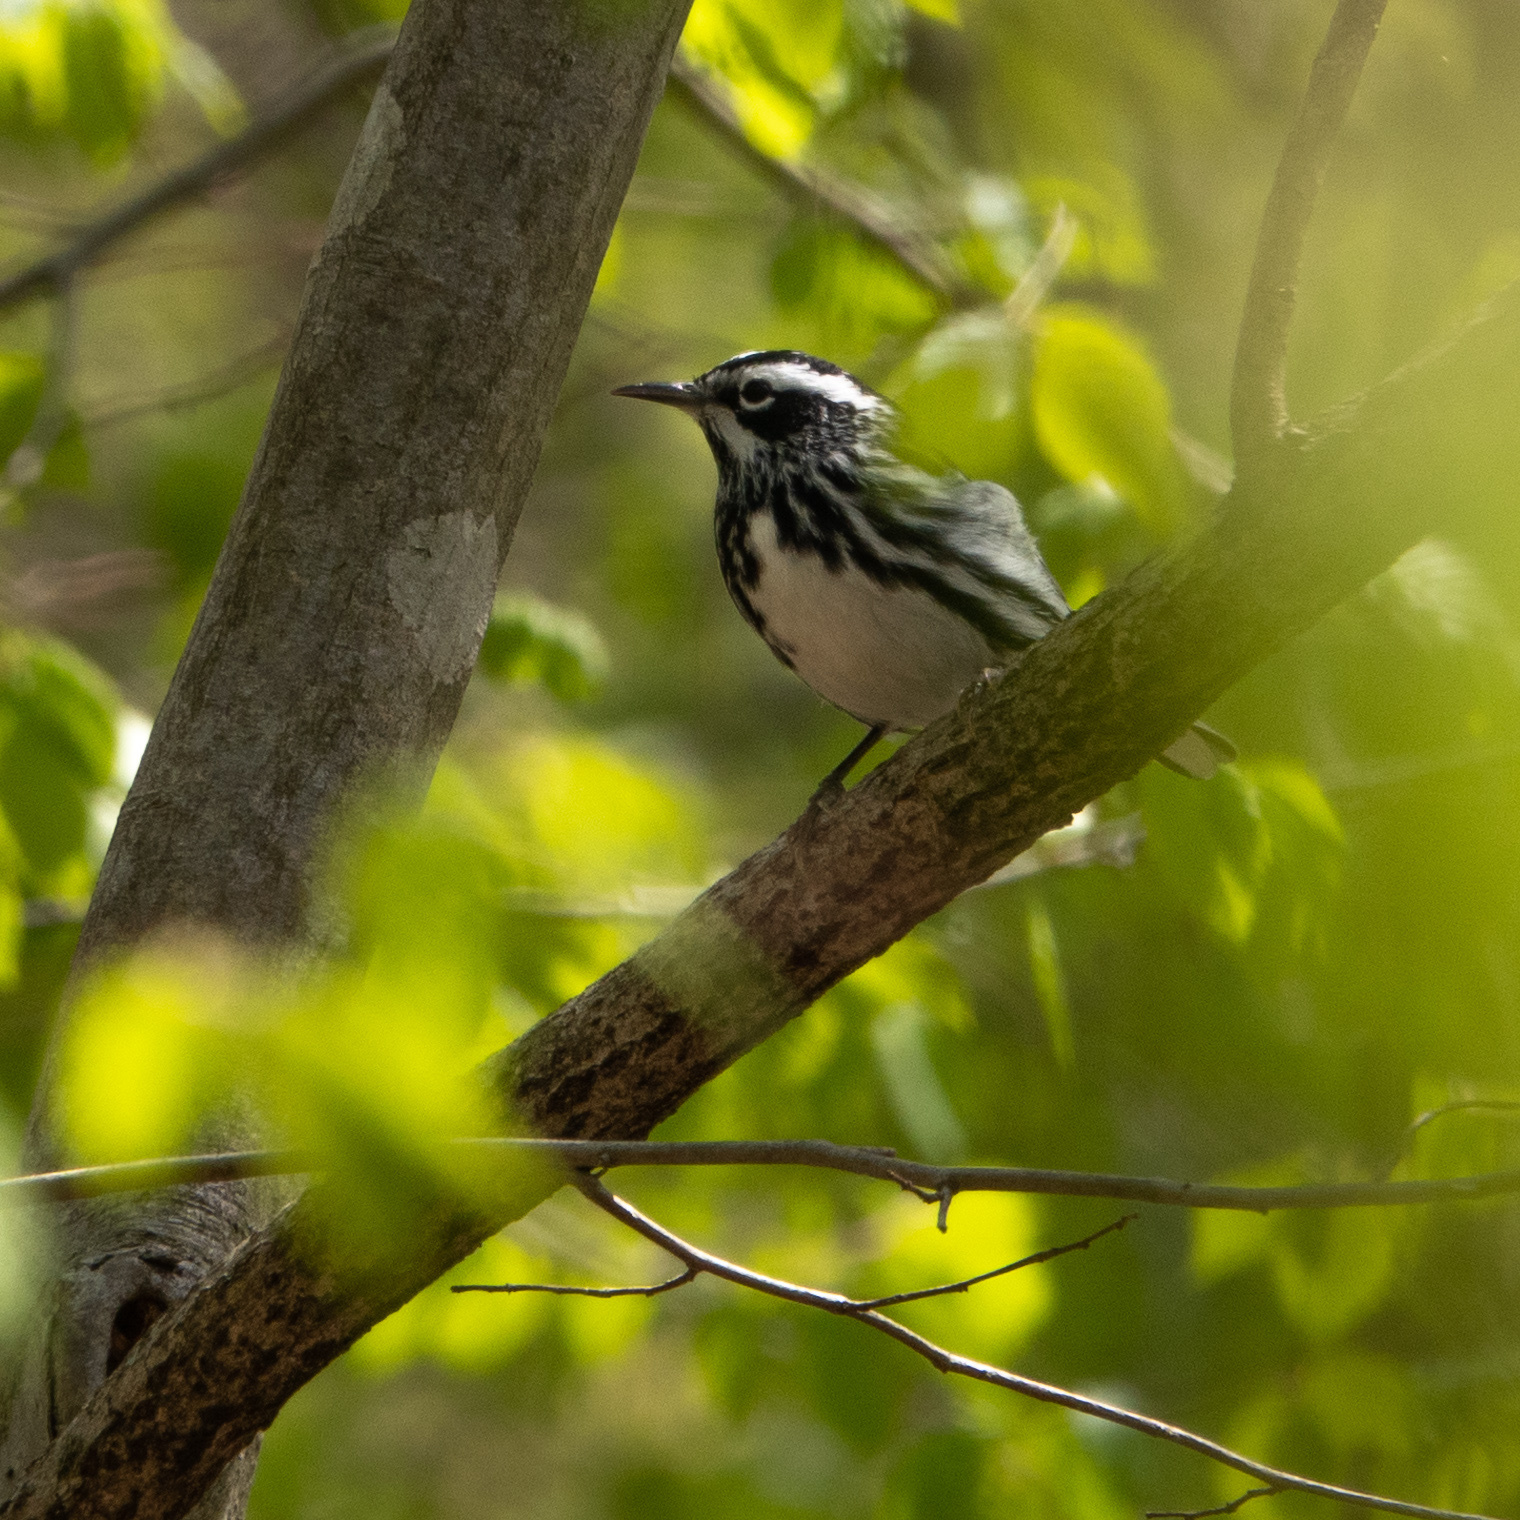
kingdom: Animalia
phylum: Chordata
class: Aves
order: Passeriformes
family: Parulidae
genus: Mniotilta
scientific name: Mniotilta varia
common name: Black-and-white warbler
